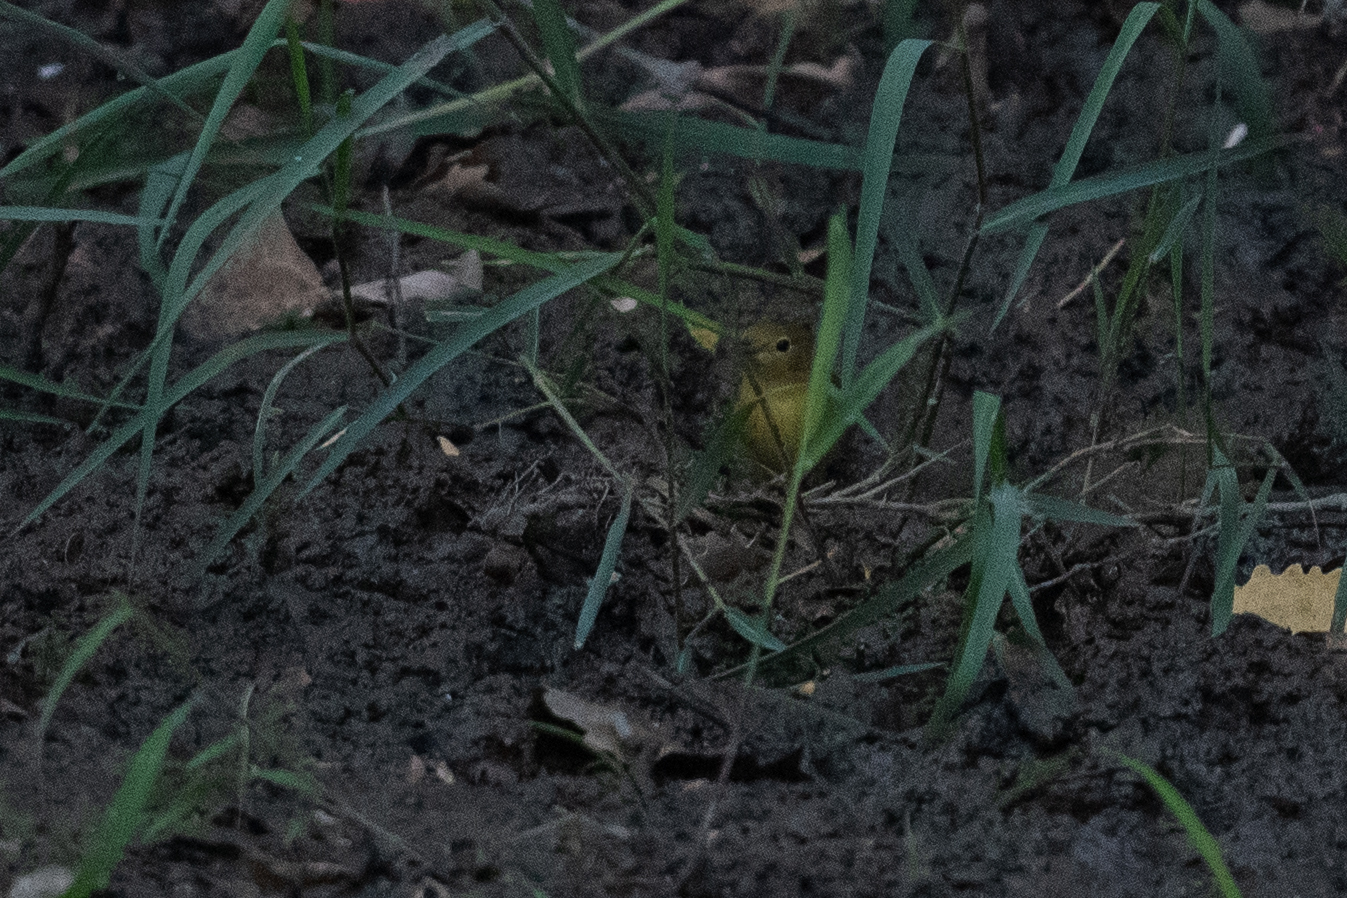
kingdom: Animalia
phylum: Chordata
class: Aves
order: Passeriformes
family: Parulidae
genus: Setophaga
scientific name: Setophaga petechia
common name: Yellow warbler
